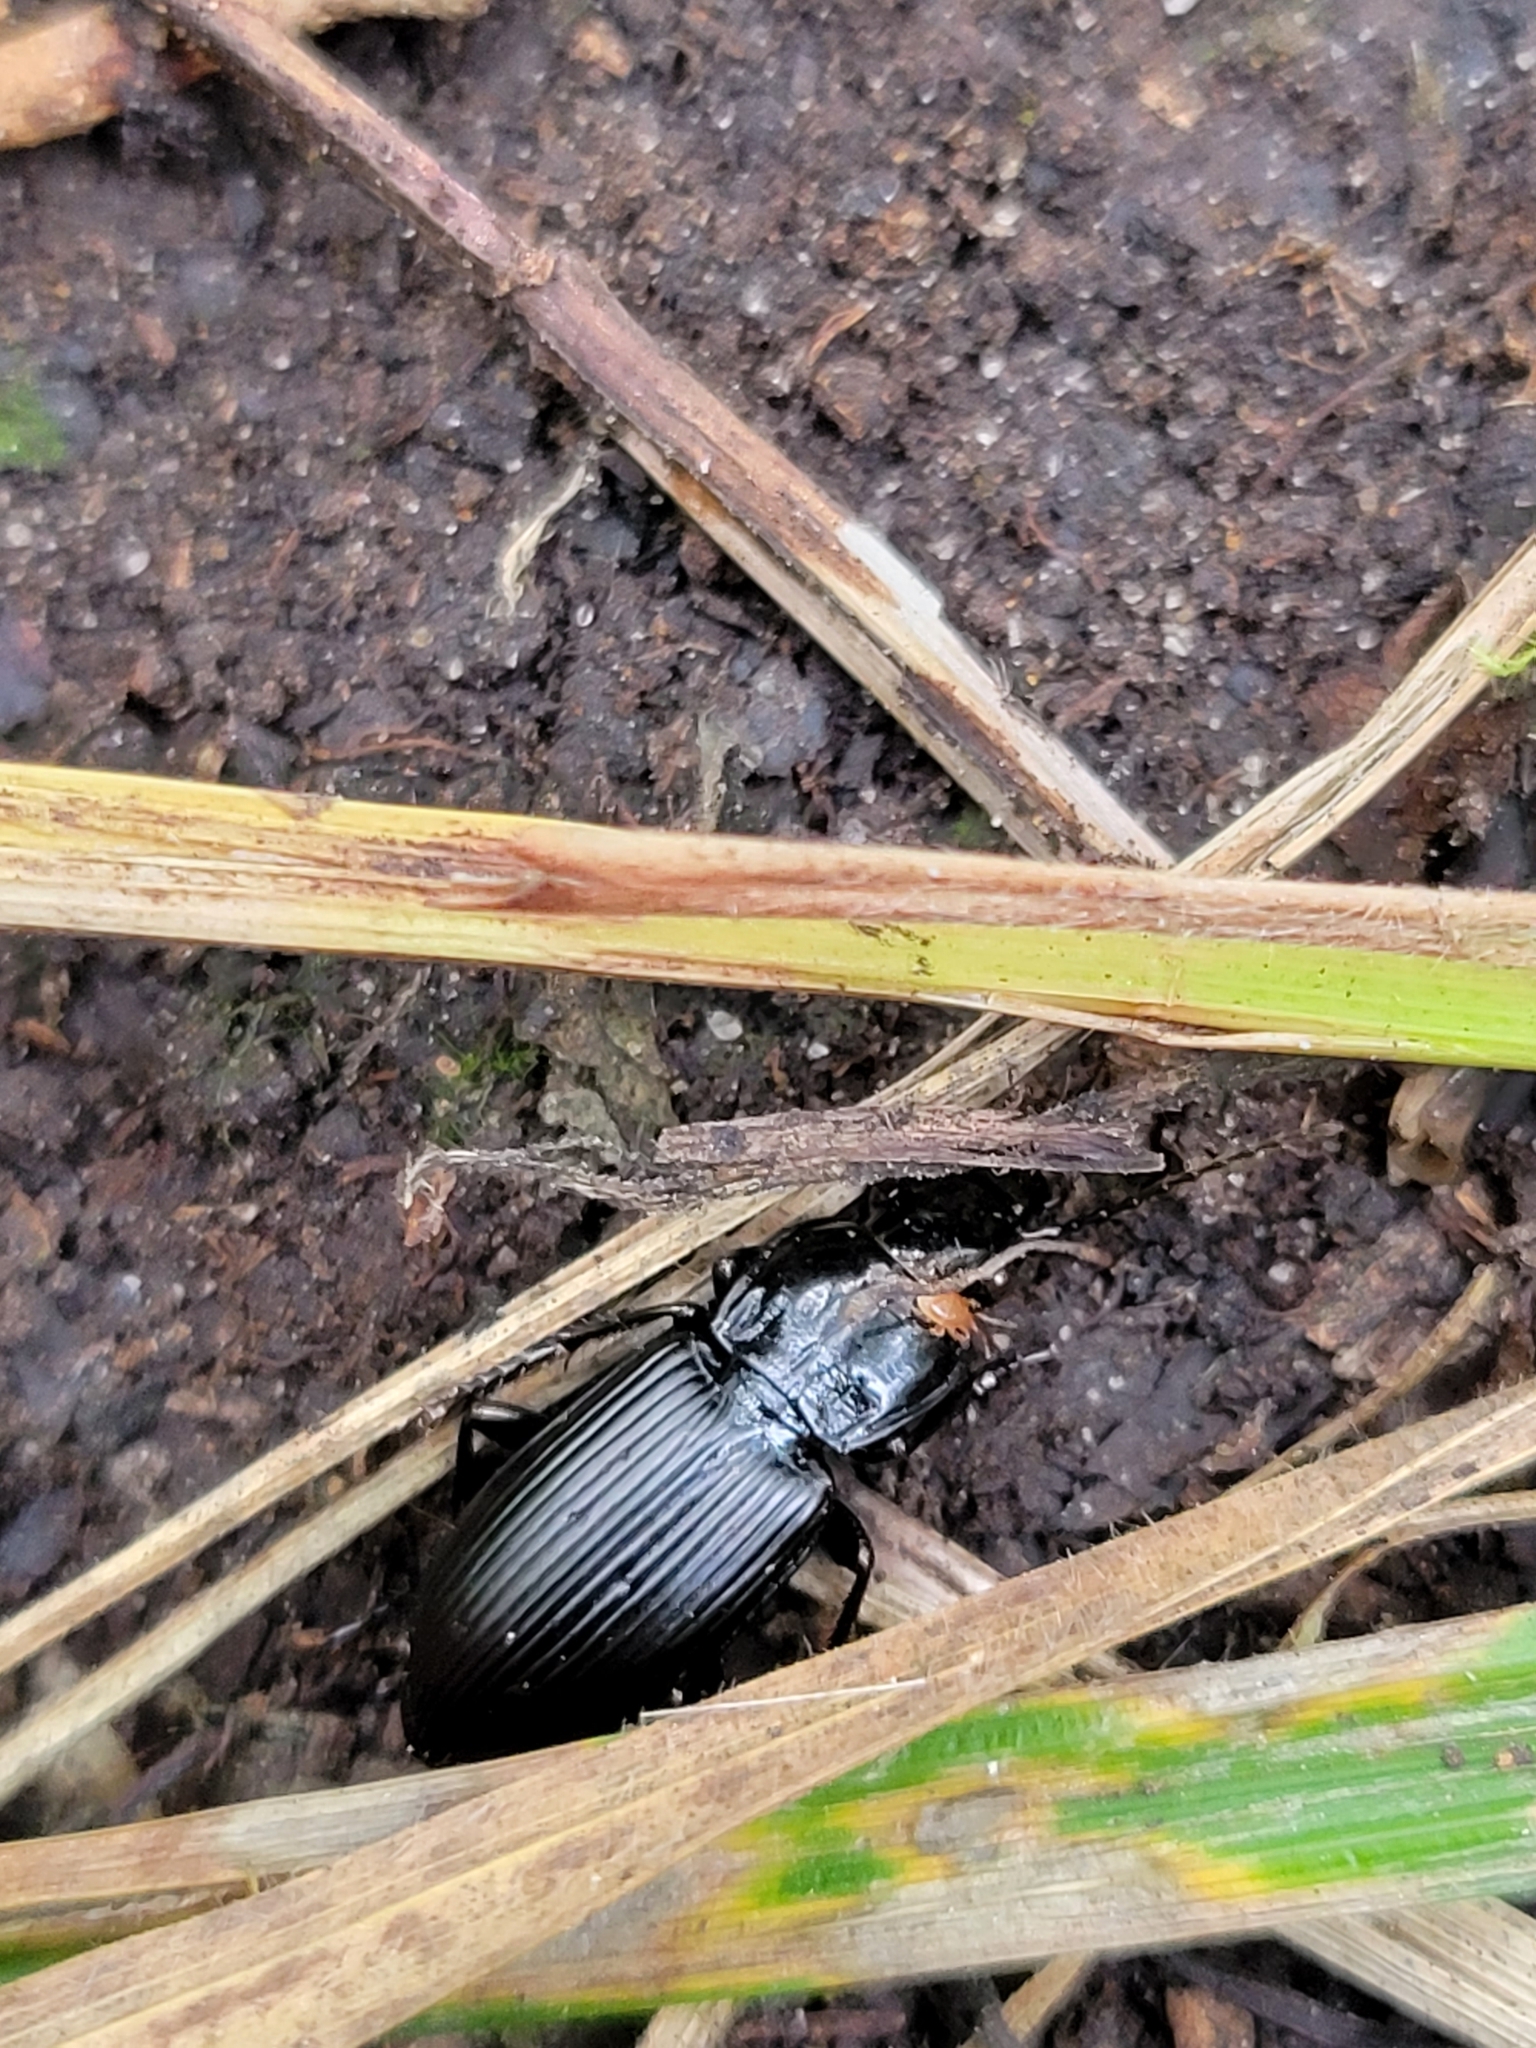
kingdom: Animalia
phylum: Arthropoda
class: Insecta
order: Coleoptera
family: Carabidae
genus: Pterostichus
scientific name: Pterostichus melanarius
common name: European dark harp ground beetle
